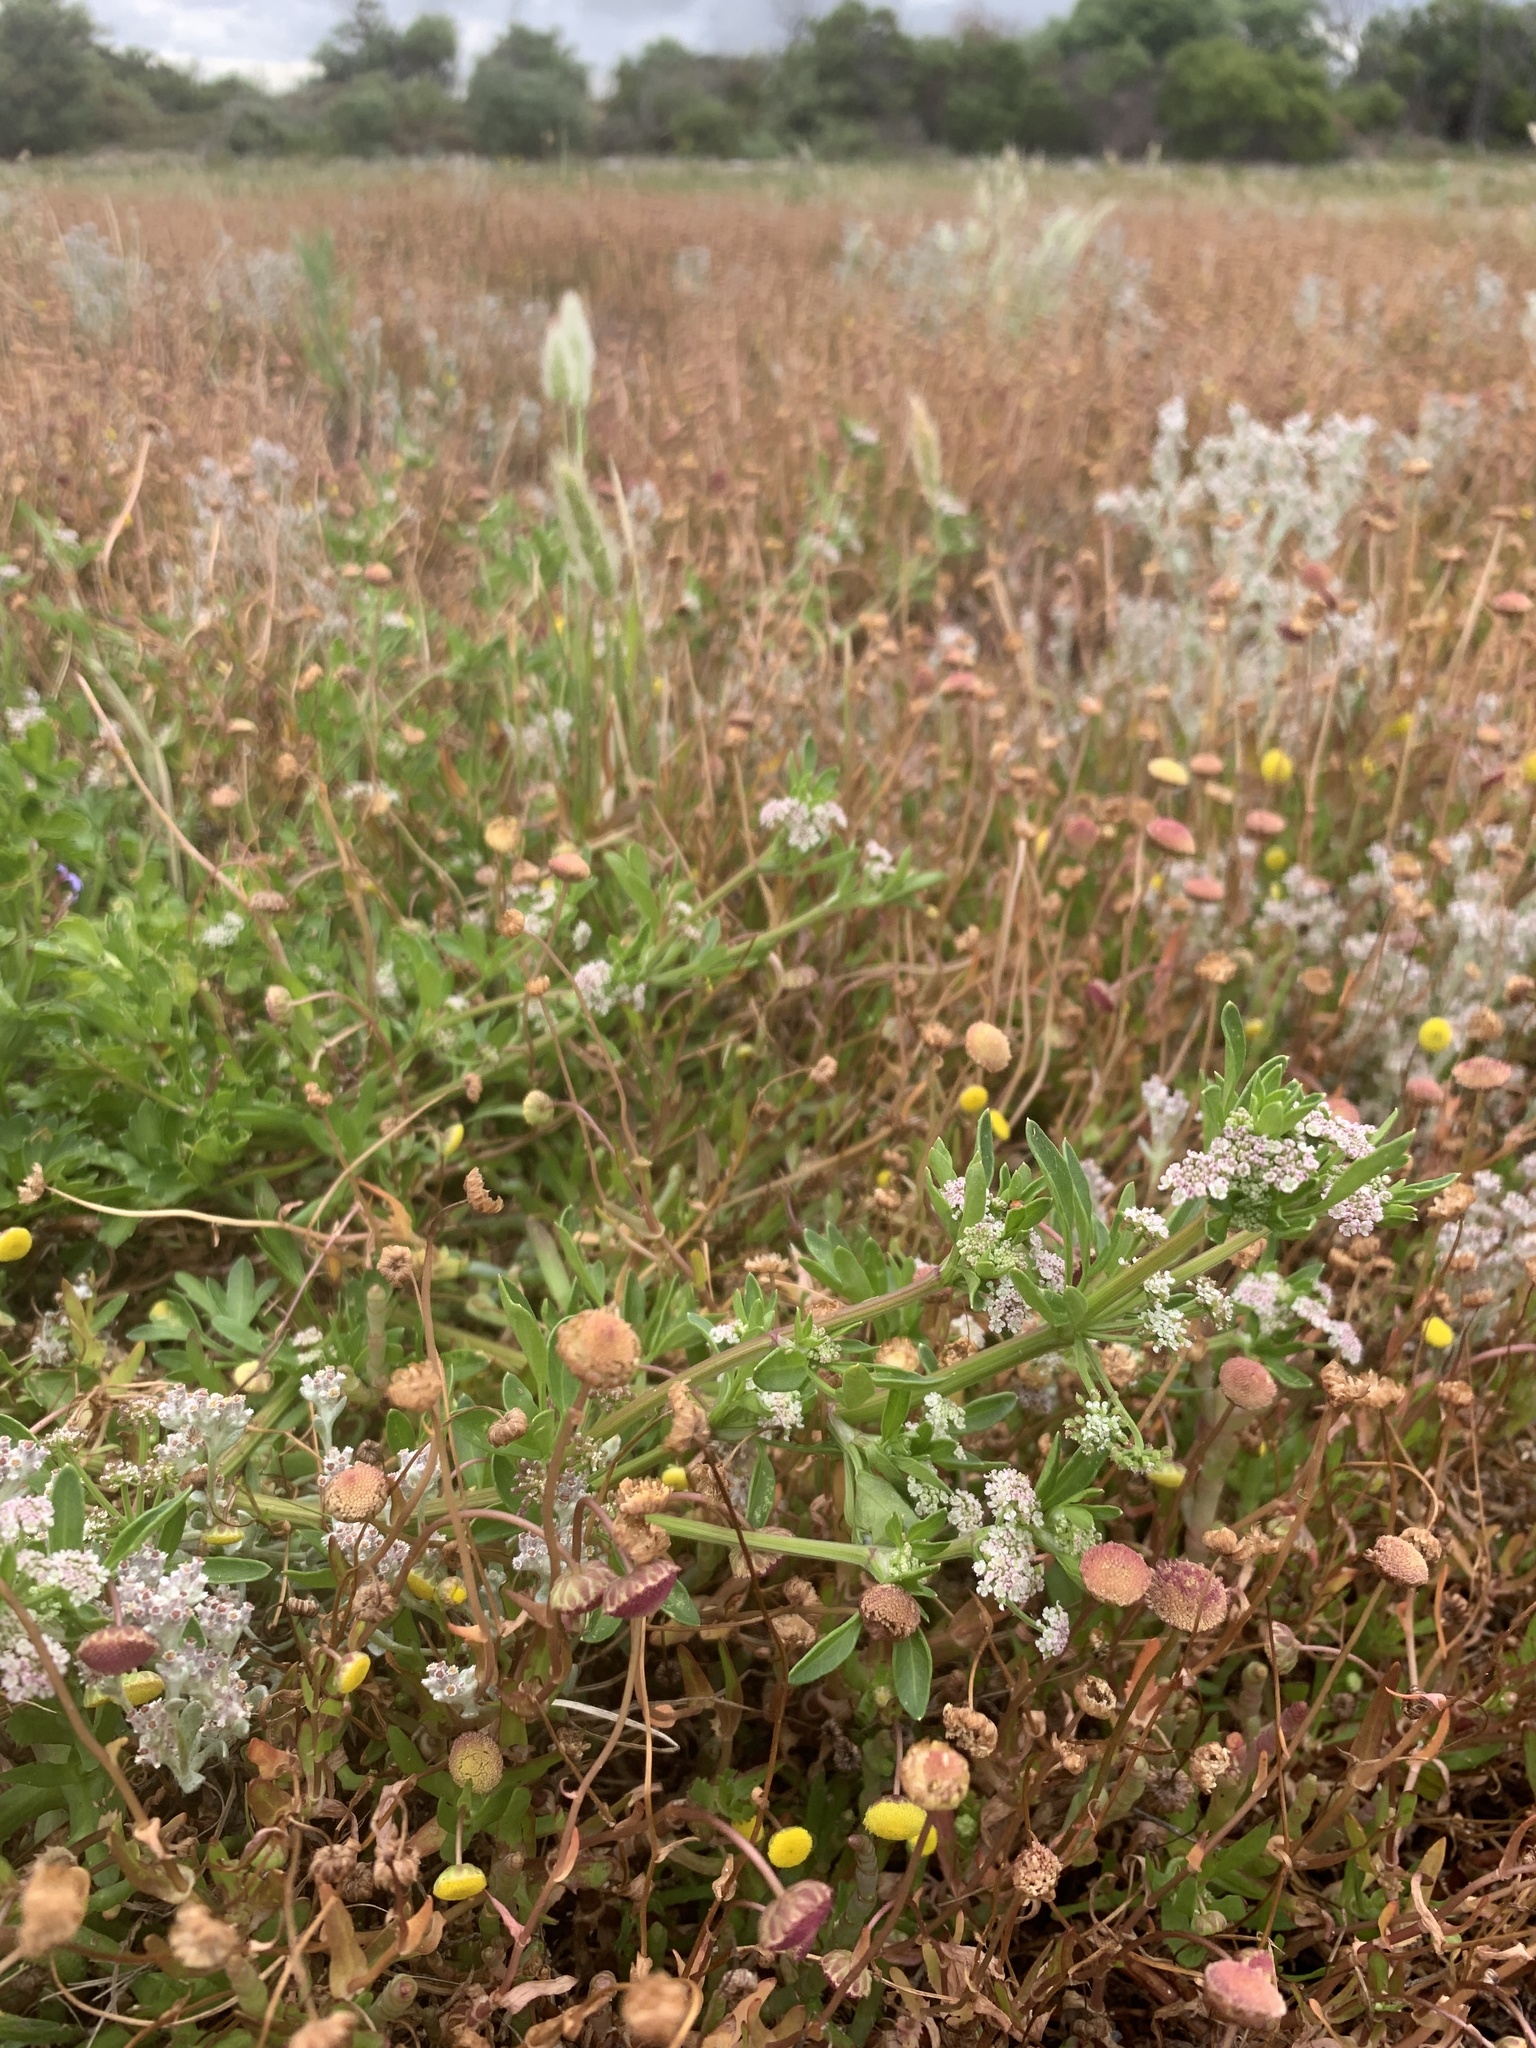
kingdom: Plantae
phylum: Tracheophyta
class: Magnoliopsida
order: Apiales
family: Apiaceae
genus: Apium
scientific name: Apium decumbens
